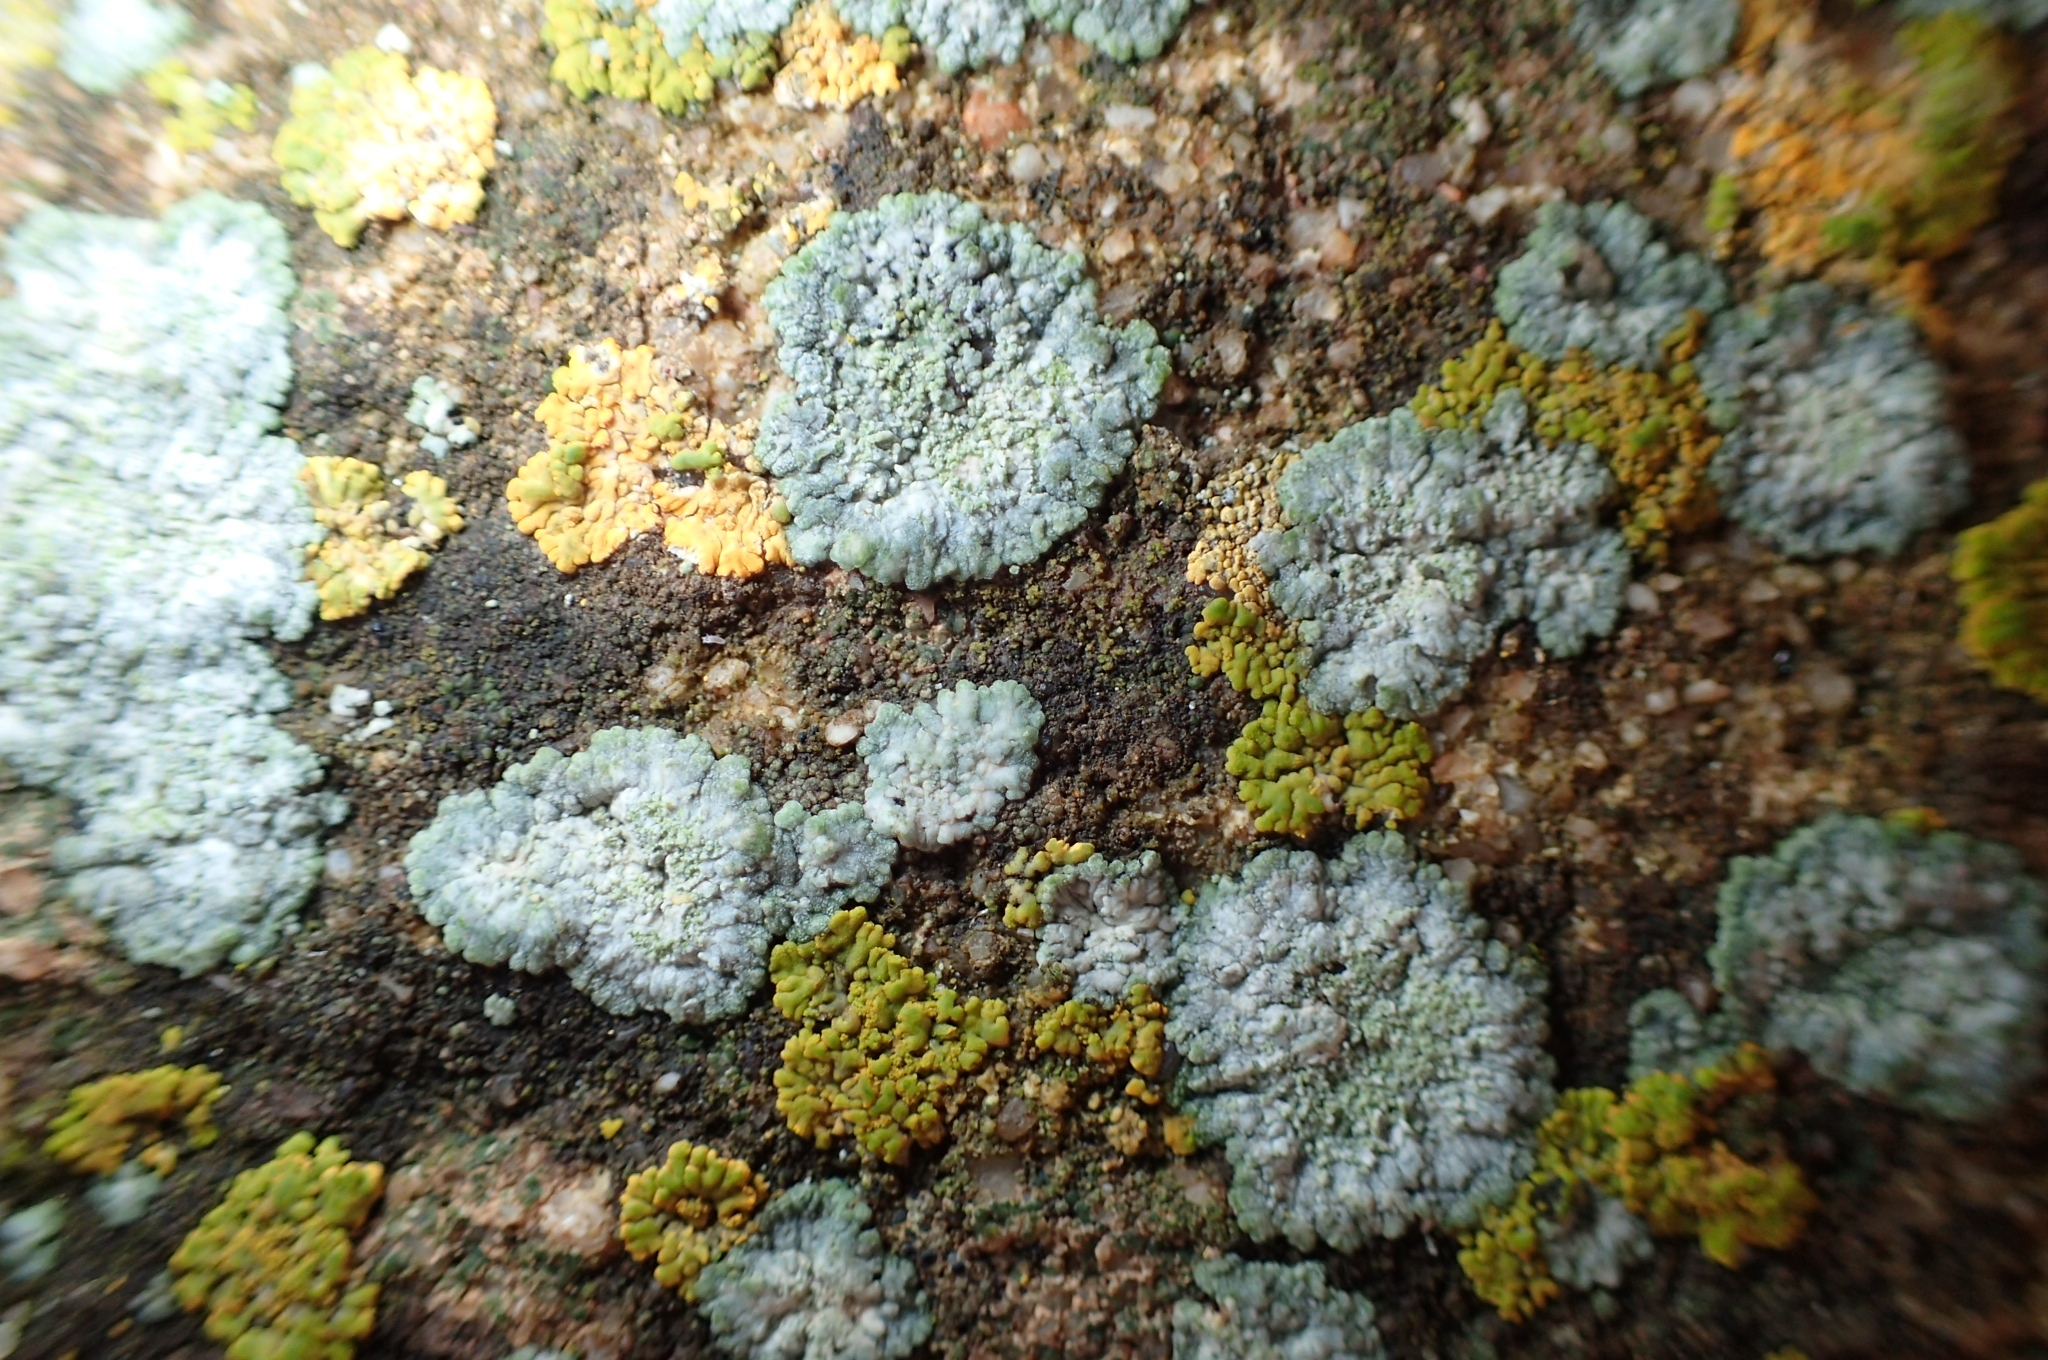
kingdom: Fungi
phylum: Ascomycota
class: Lecanoromycetes
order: Teloschistales
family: Teloschistaceae
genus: Kuettlingeria
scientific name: Kuettlingeria teicholyta
